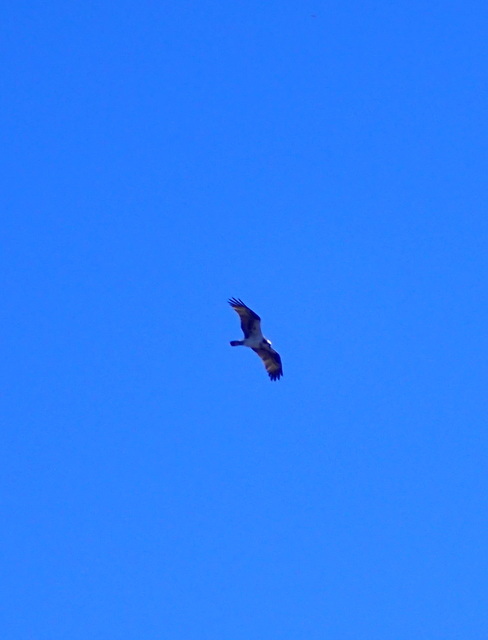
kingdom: Animalia
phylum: Chordata
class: Aves
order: Accipitriformes
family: Pandionidae
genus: Pandion
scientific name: Pandion haliaetus
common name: Osprey
